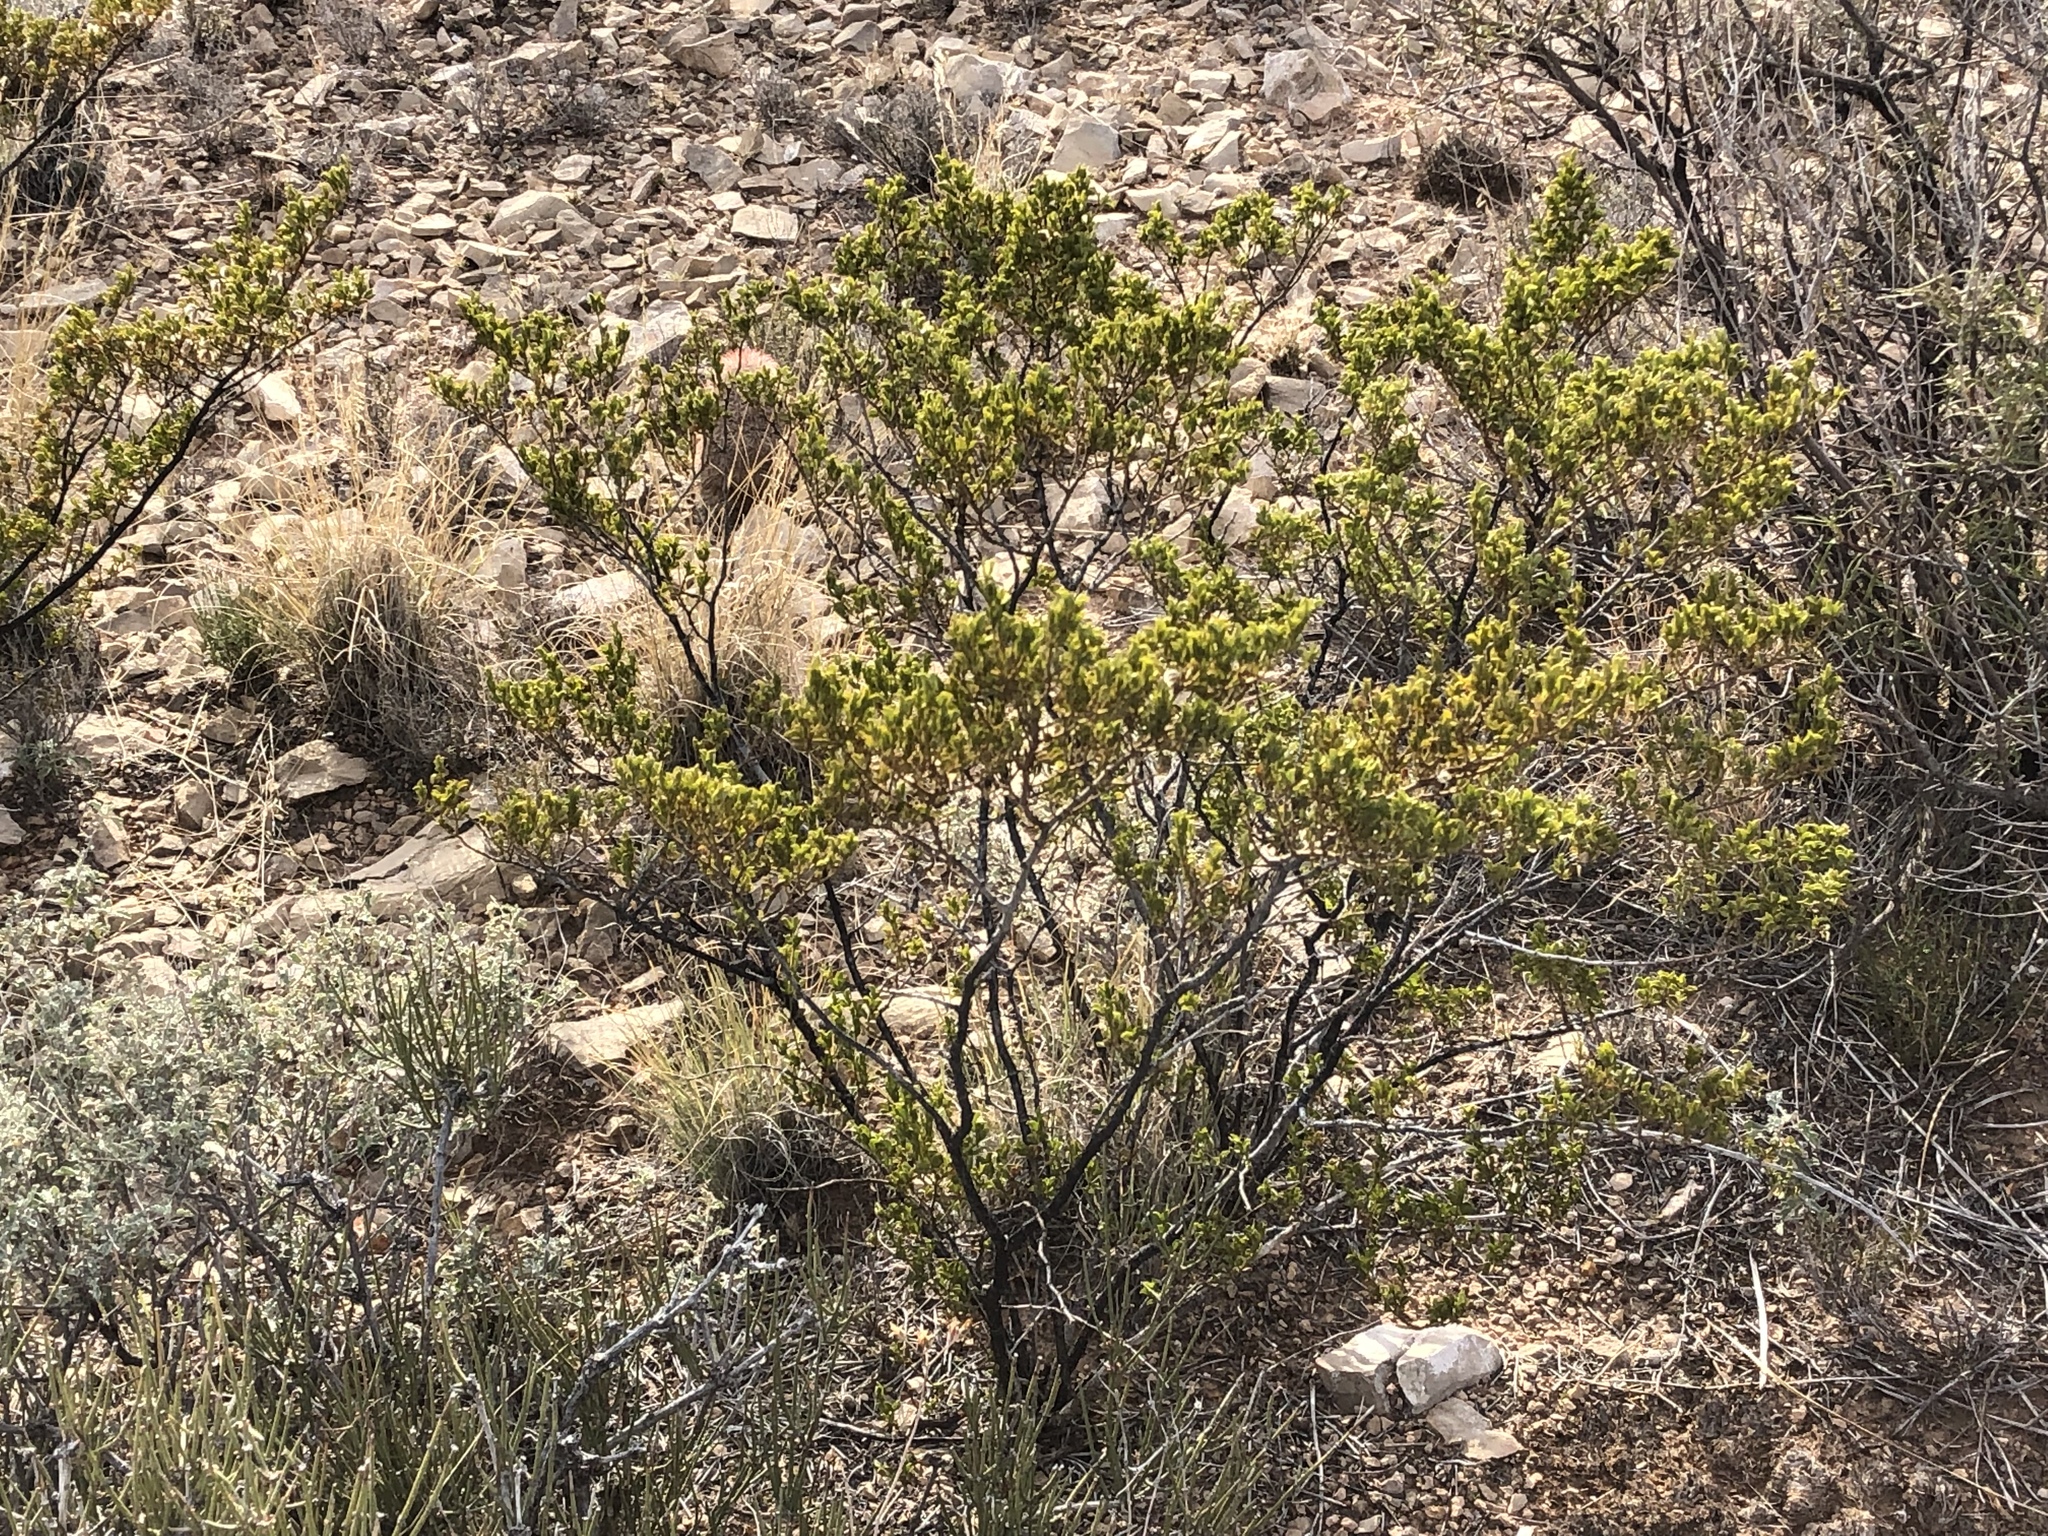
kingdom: Plantae
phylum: Tracheophyta
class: Magnoliopsida
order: Zygophyllales
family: Zygophyllaceae
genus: Larrea
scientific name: Larrea tridentata
